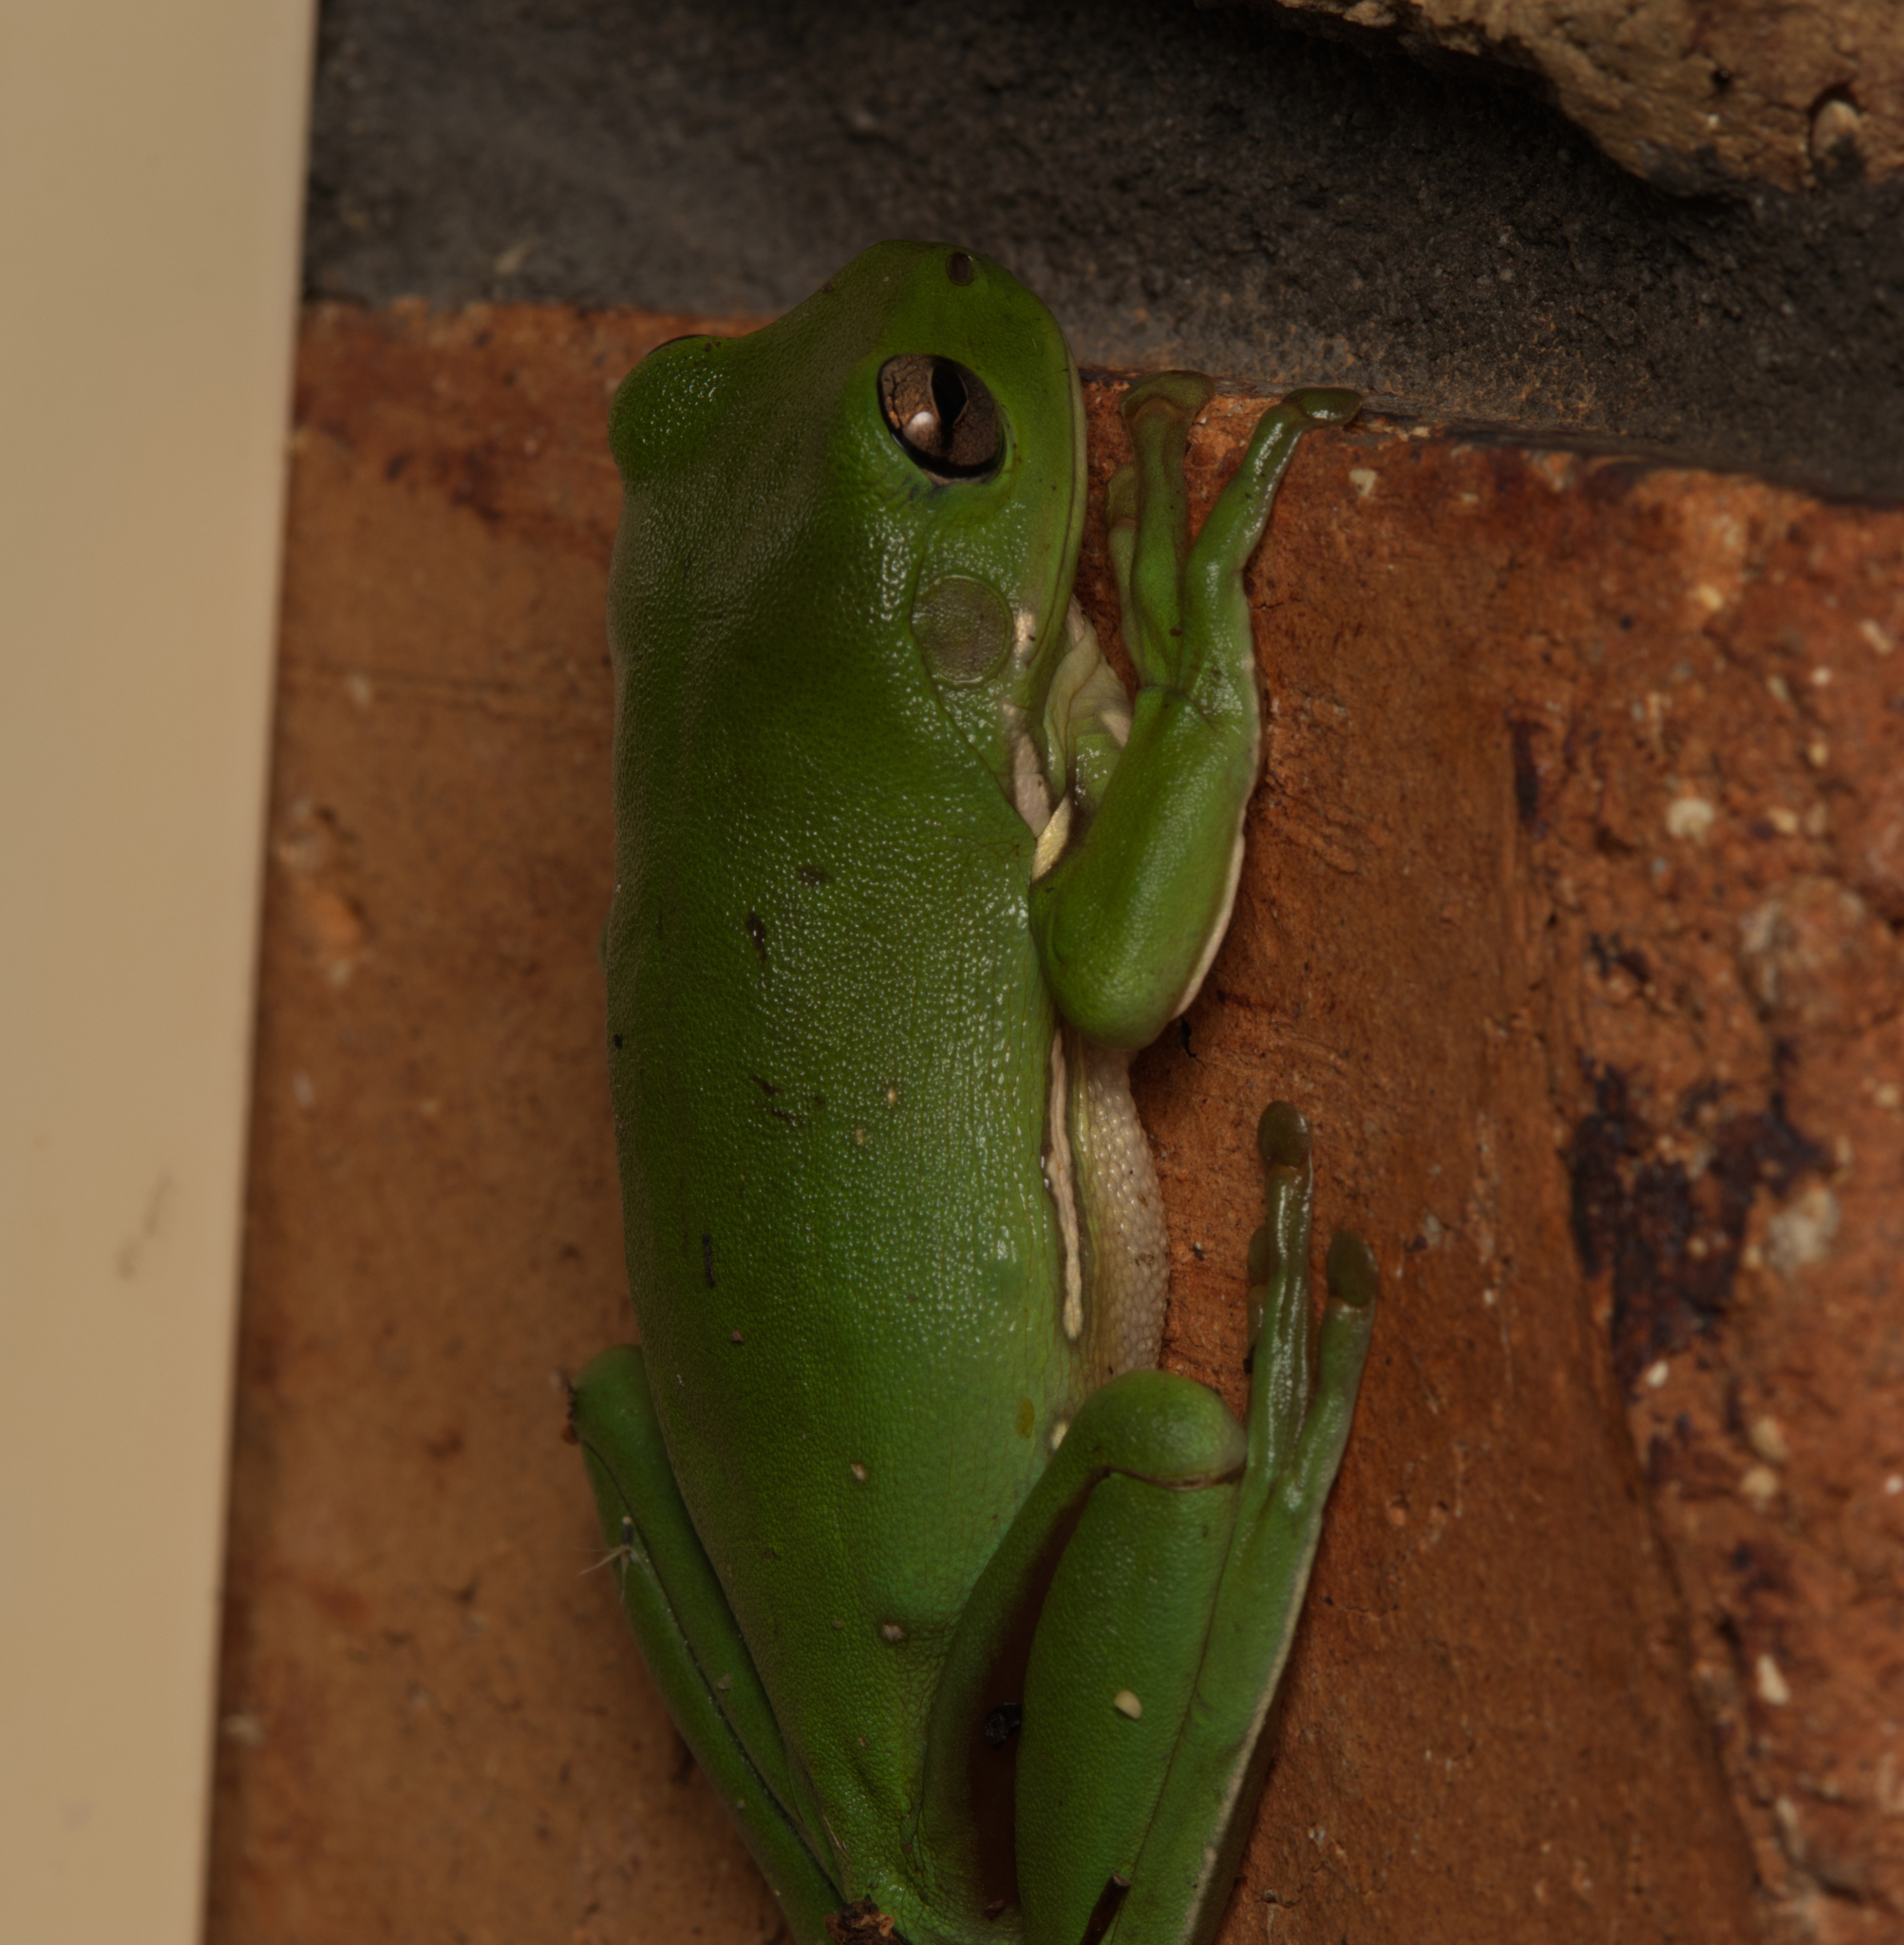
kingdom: Animalia
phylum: Chordata
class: Amphibia
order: Anura
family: Pelodryadidae
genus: Ranoidea
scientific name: Ranoidea caerulea
